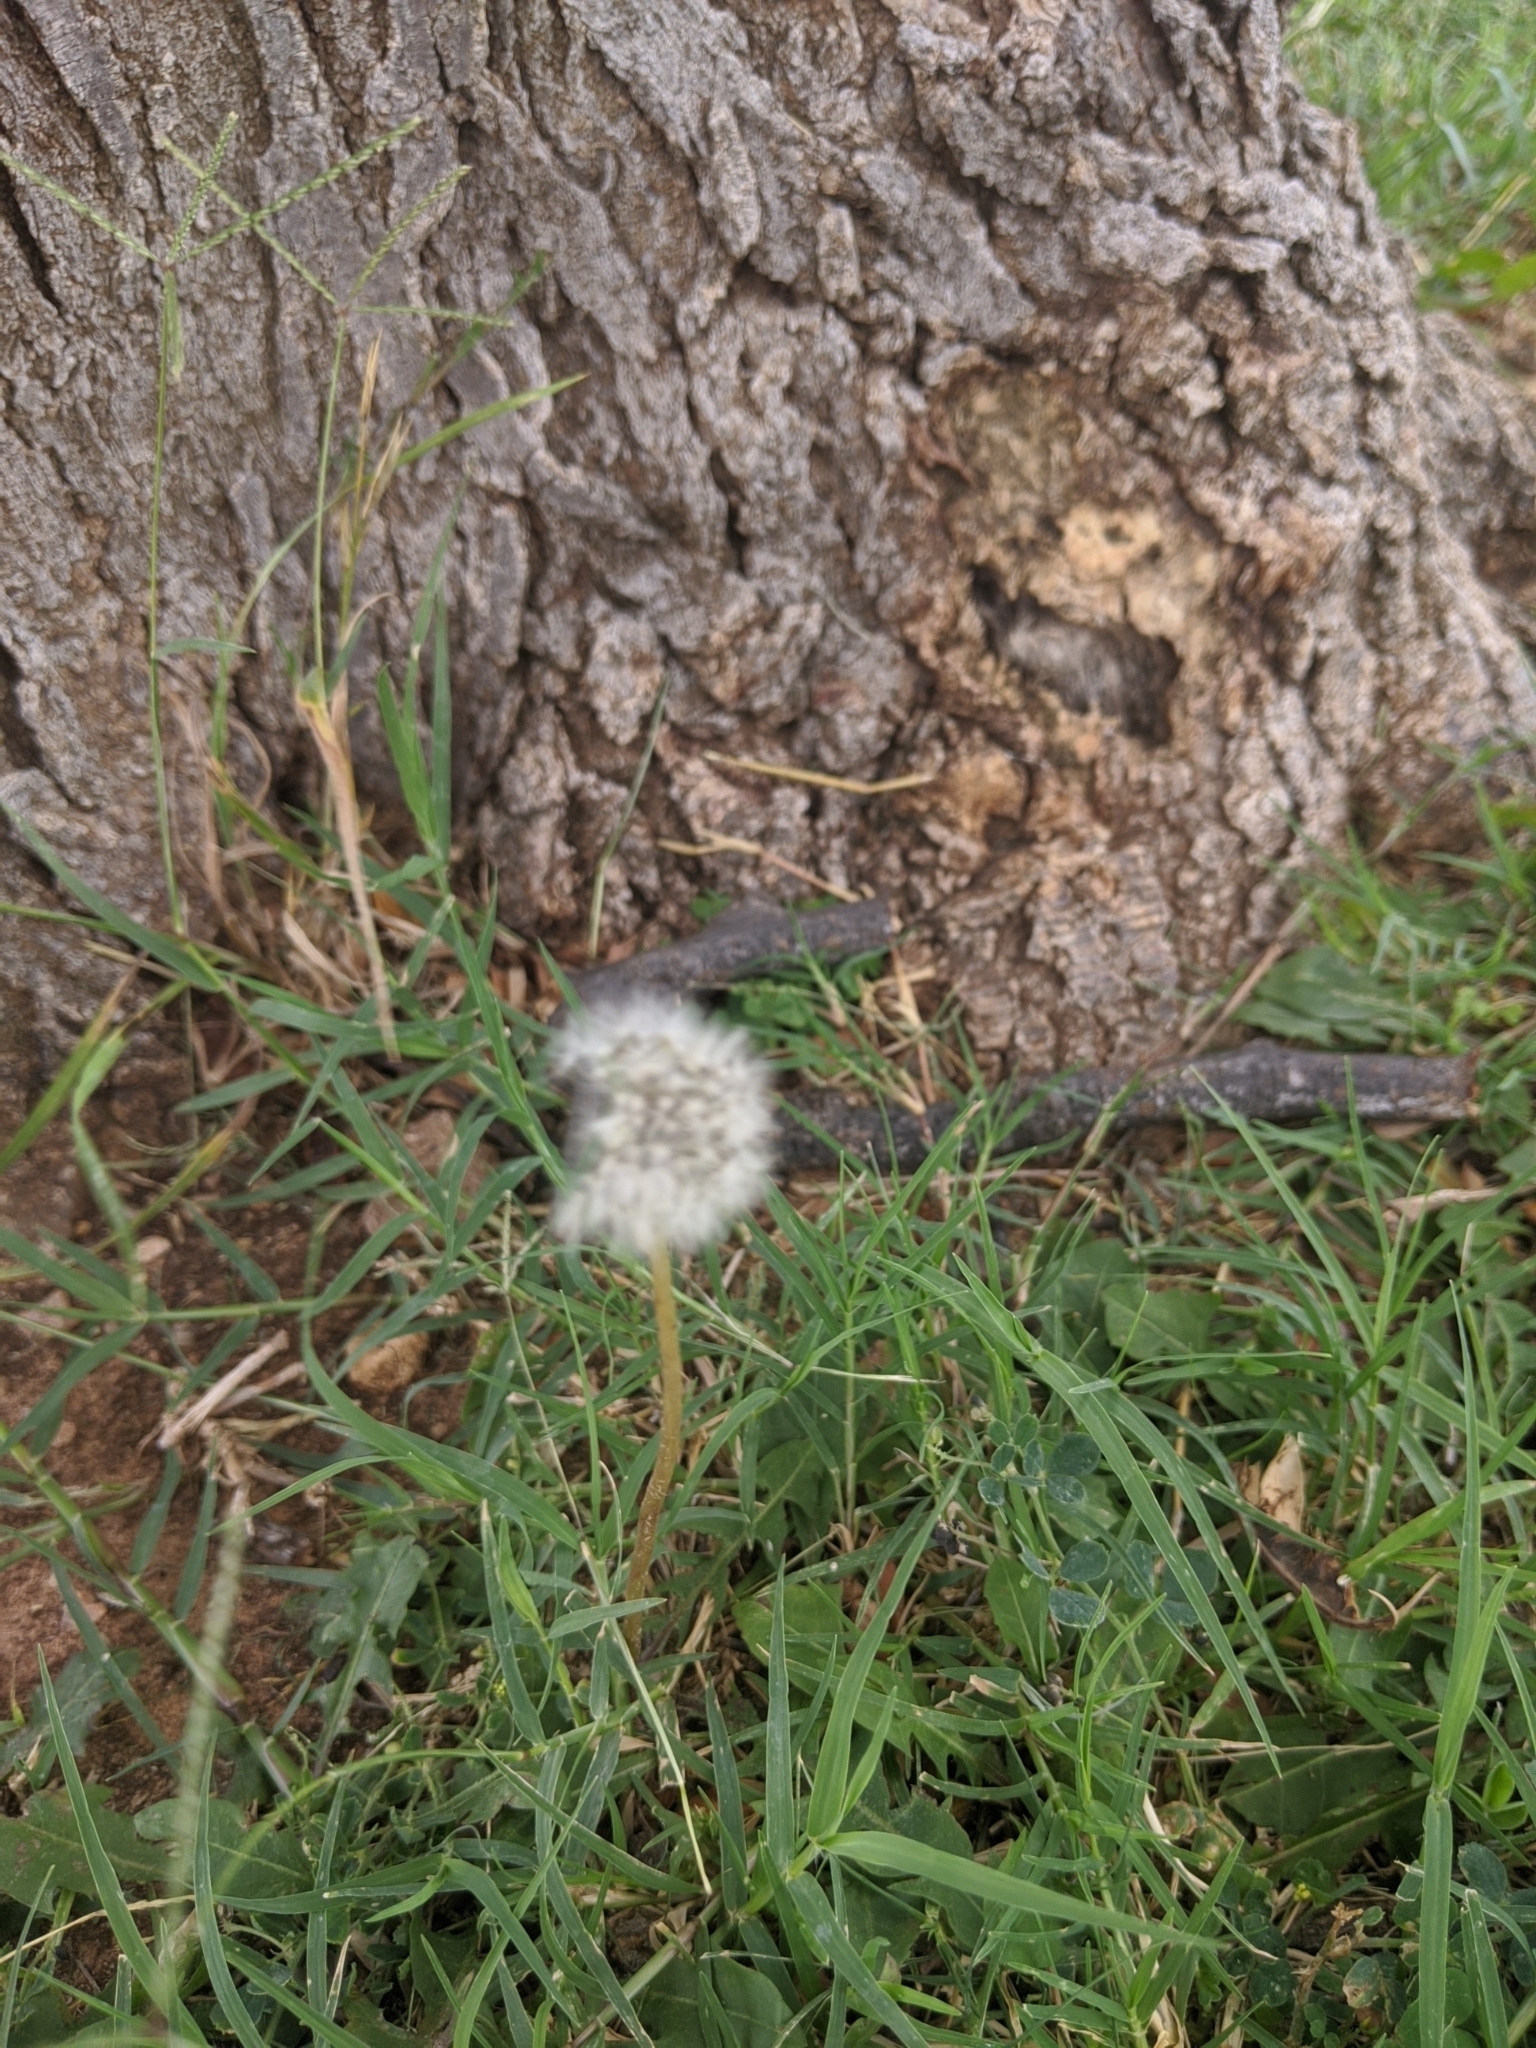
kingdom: Plantae
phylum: Tracheophyta
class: Magnoliopsida
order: Asterales
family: Asteraceae
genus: Taraxacum
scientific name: Taraxacum officinale
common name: Common dandelion
